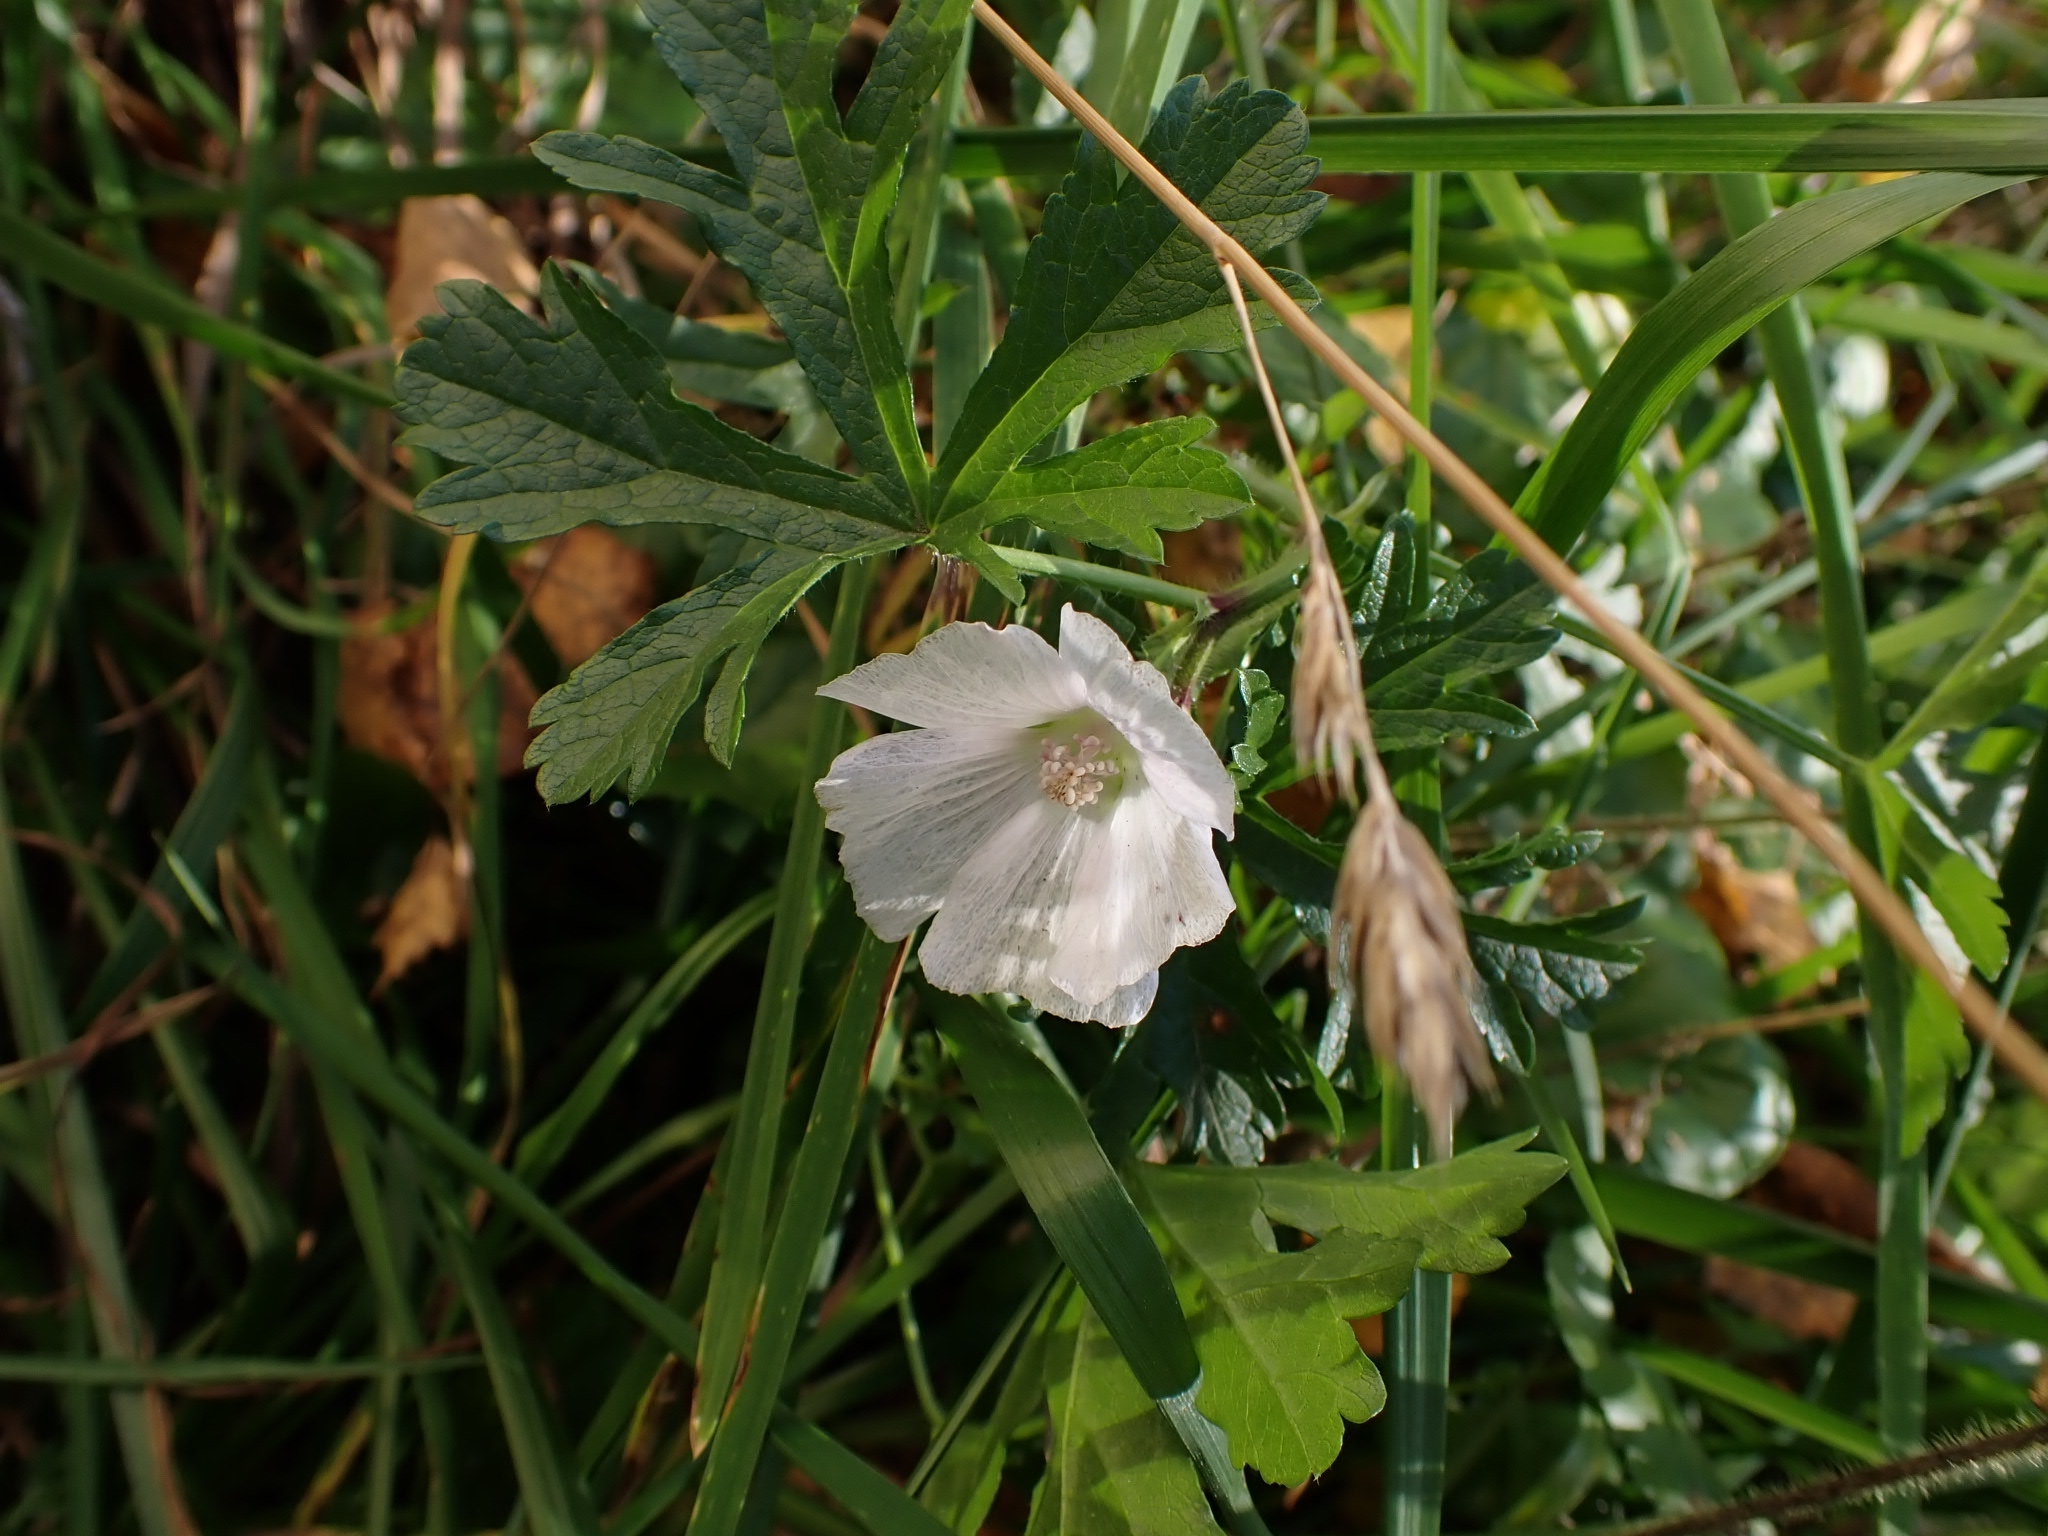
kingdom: Plantae
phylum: Tracheophyta
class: Magnoliopsida
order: Malvales
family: Malvaceae
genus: Malva
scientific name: Malva moschata
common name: Musk mallow
